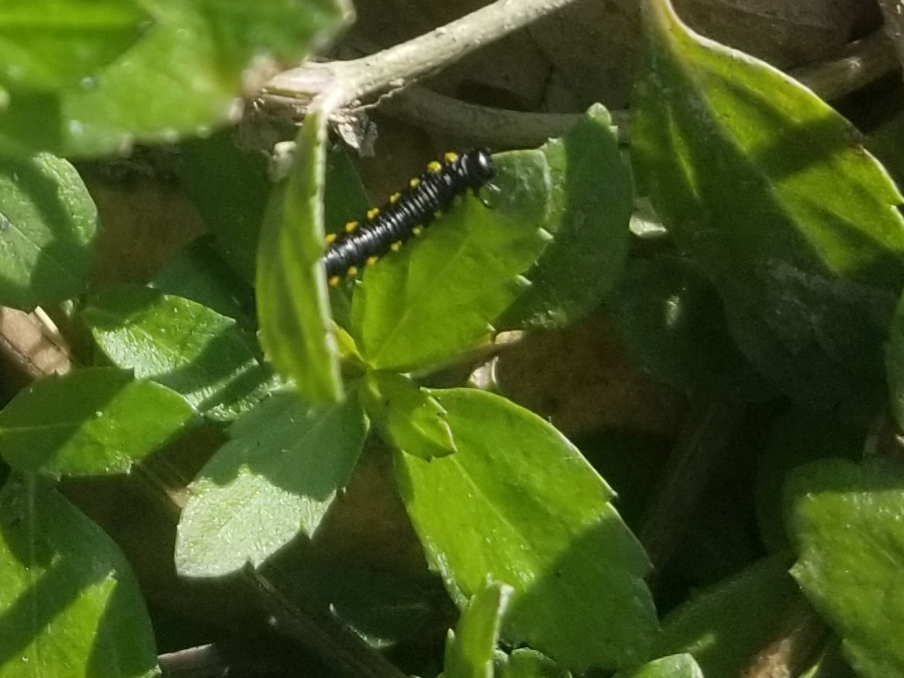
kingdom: Animalia
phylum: Arthropoda
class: Insecta
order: Hymenoptera
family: Tenthredinidae
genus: Euura
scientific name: Euura ventralis
